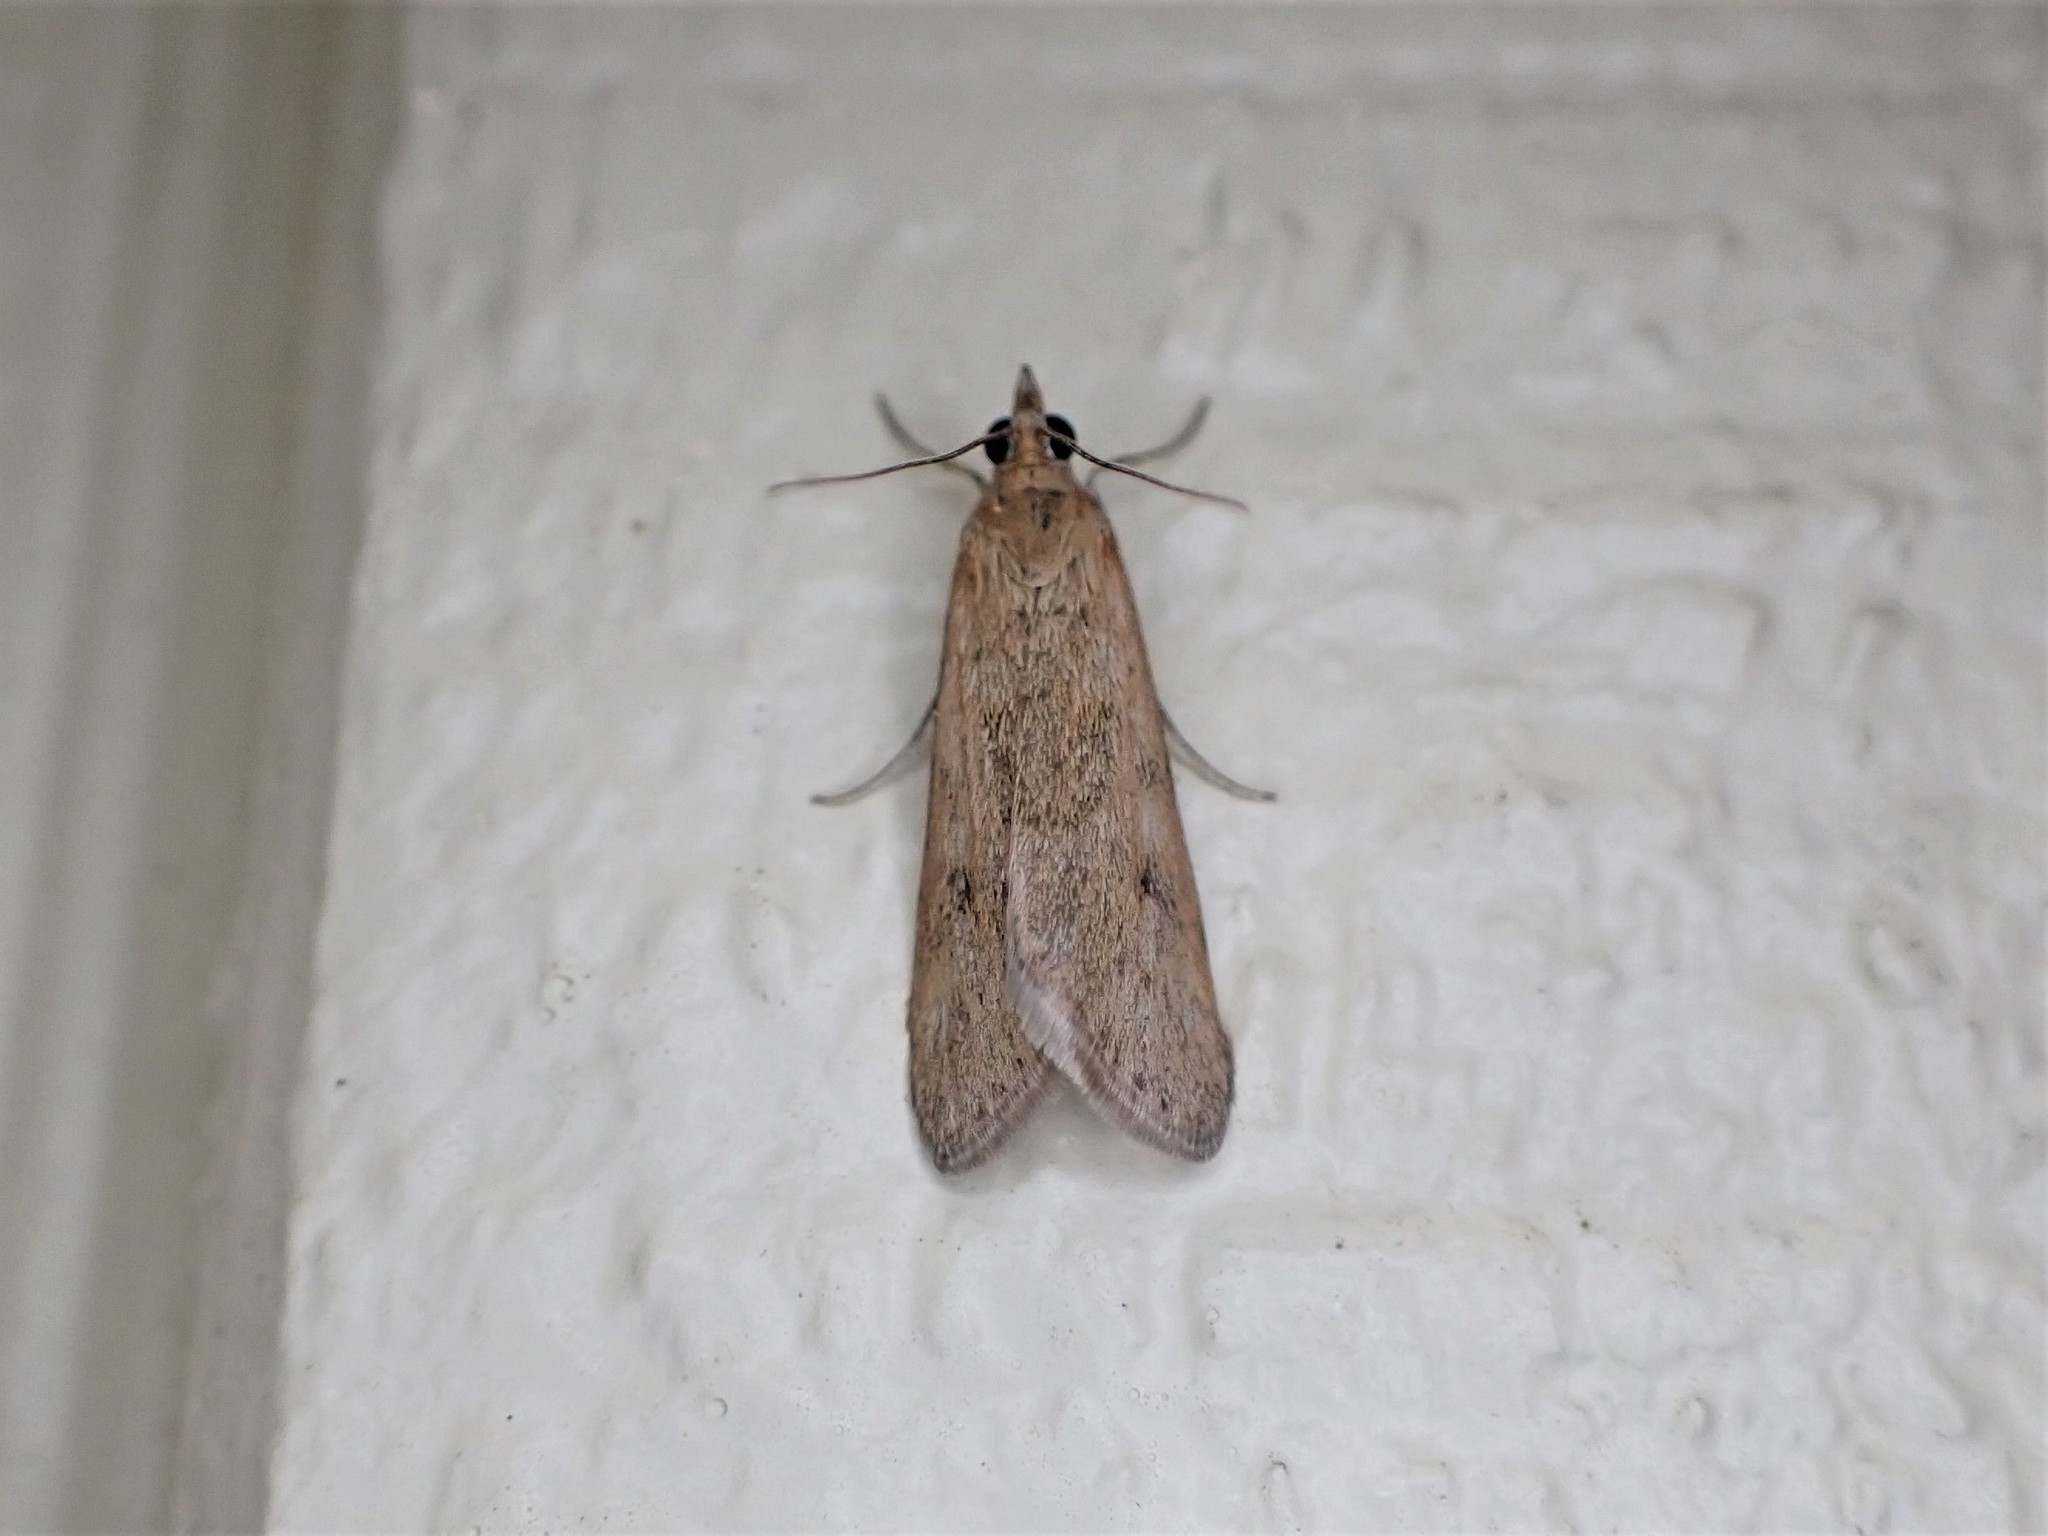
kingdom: Animalia
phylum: Arthropoda
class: Insecta
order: Lepidoptera
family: Crambidae
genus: Achyra
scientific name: Achyra affinitalis
